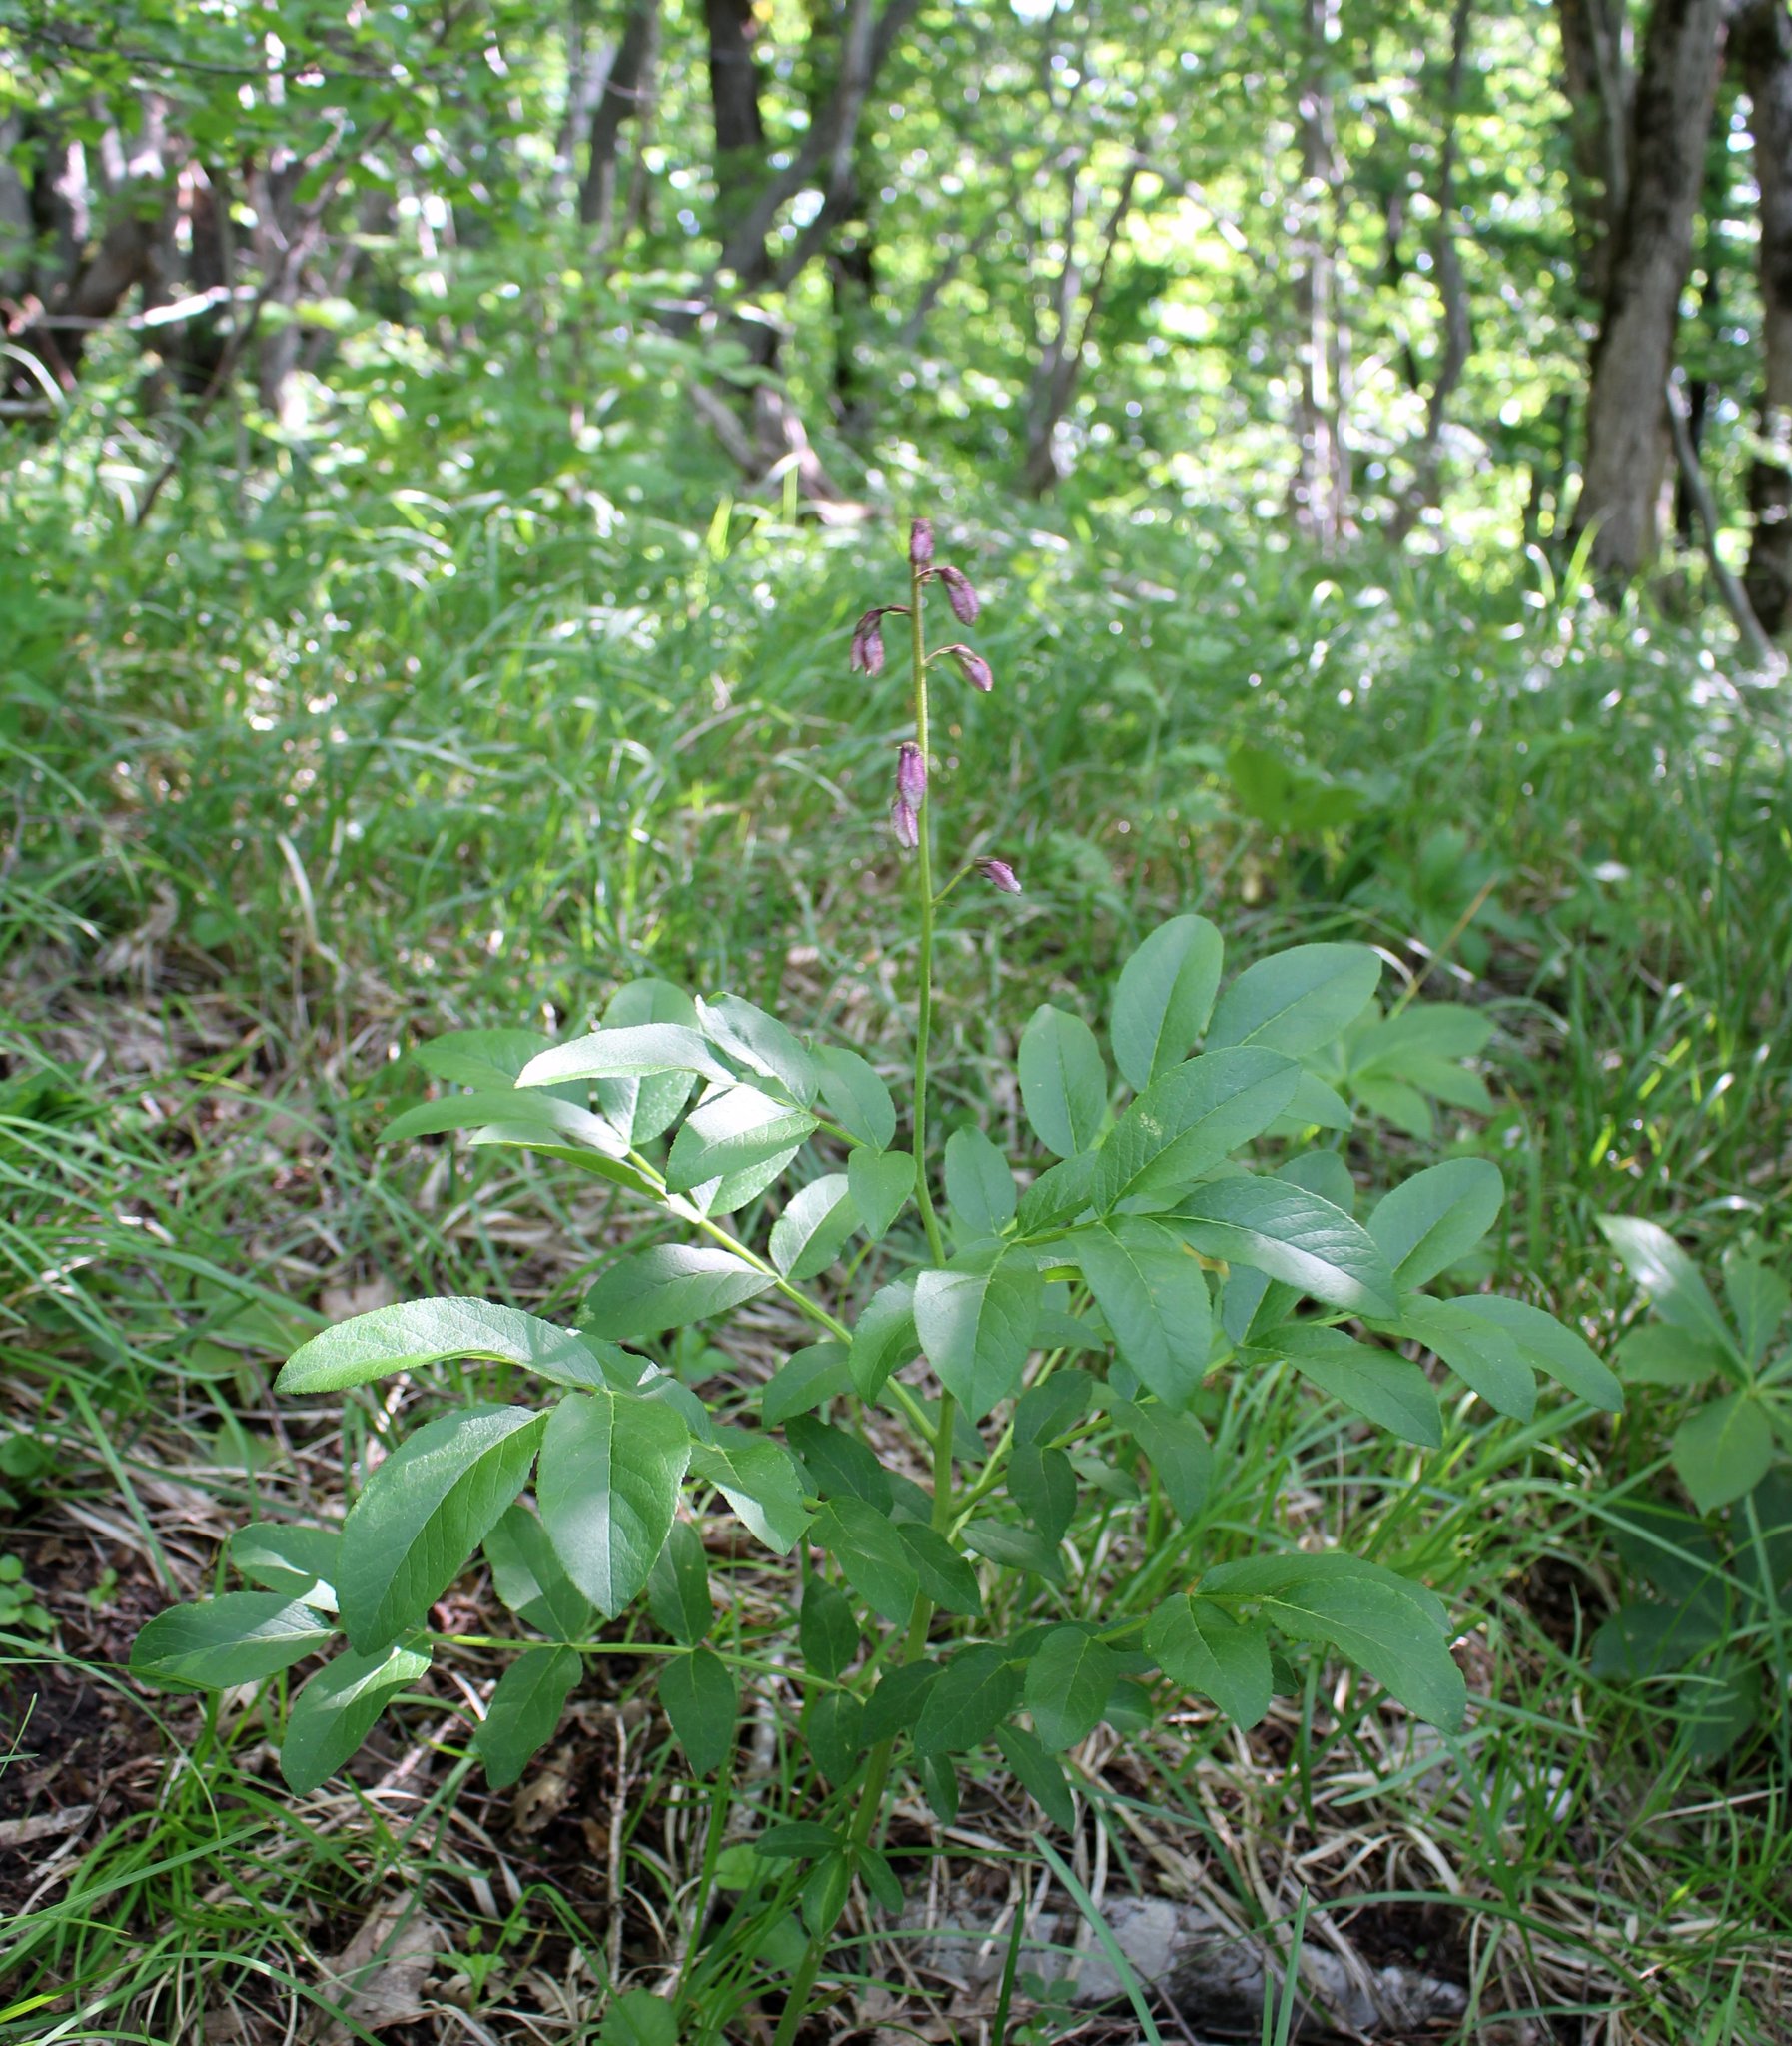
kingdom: Plantae
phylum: Tracheophyta
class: Magnoliopsida
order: Sapindales
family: Rutaceae
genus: Dictamnus
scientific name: Dictamnus albus
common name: Gasplant
